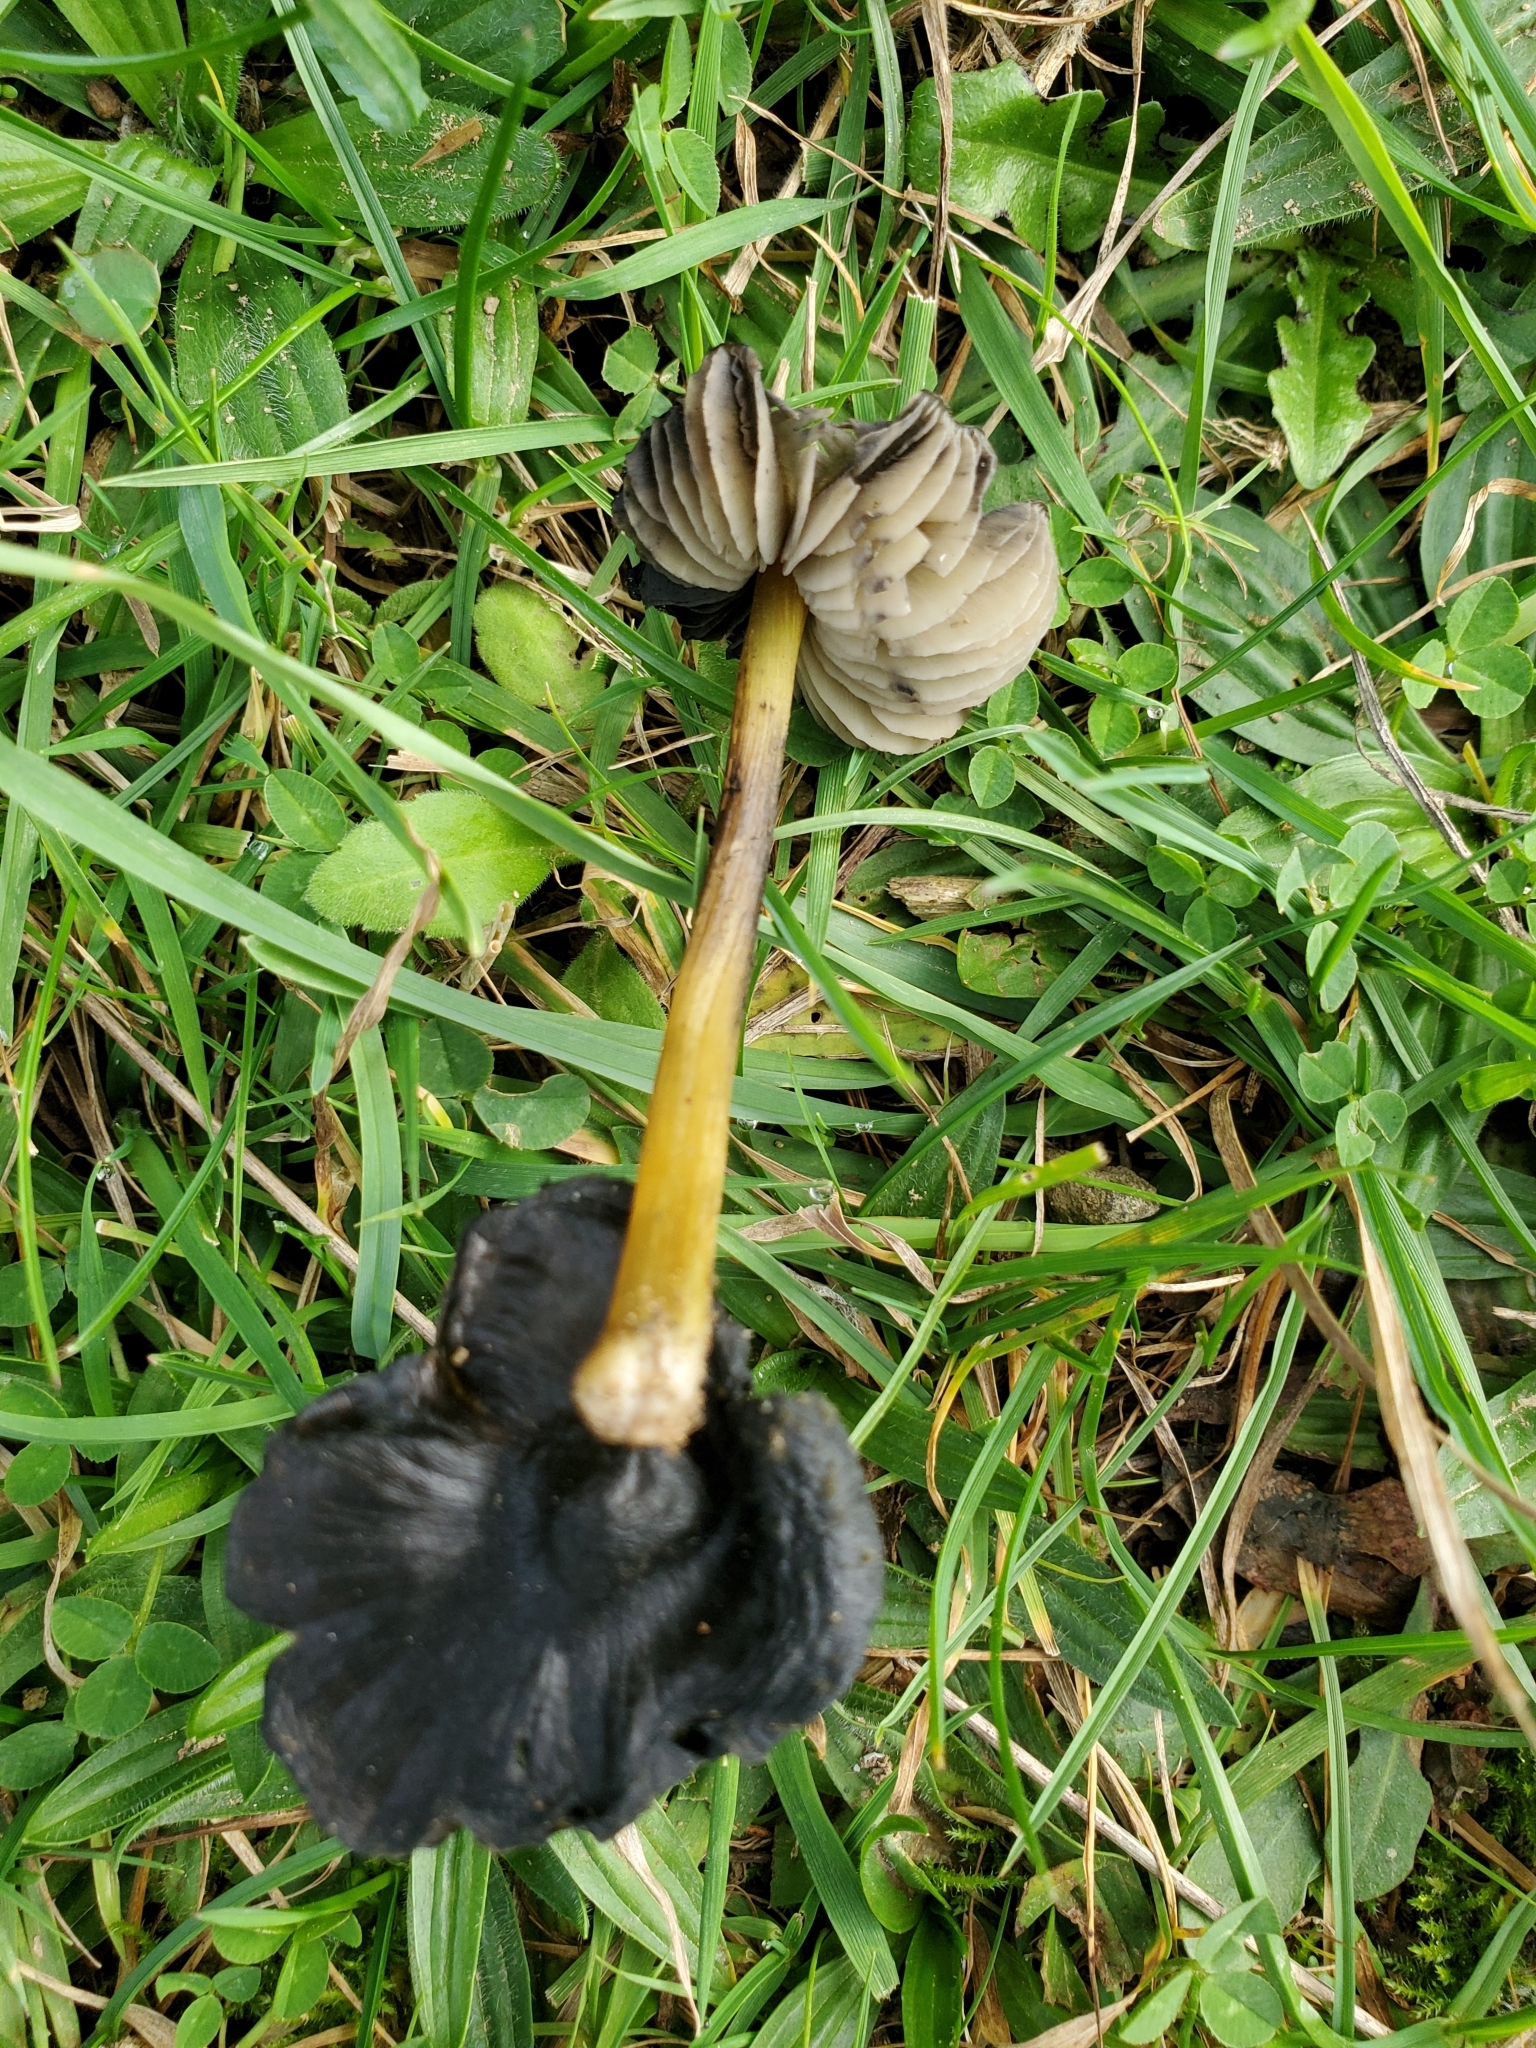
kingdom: Fungi
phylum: Basidiomycota
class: Agaricomycetes
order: Agaricales
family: Hygrophoraceae
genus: Hygrocybe
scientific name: Hygrocybe conica
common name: Blackening wax-cap
